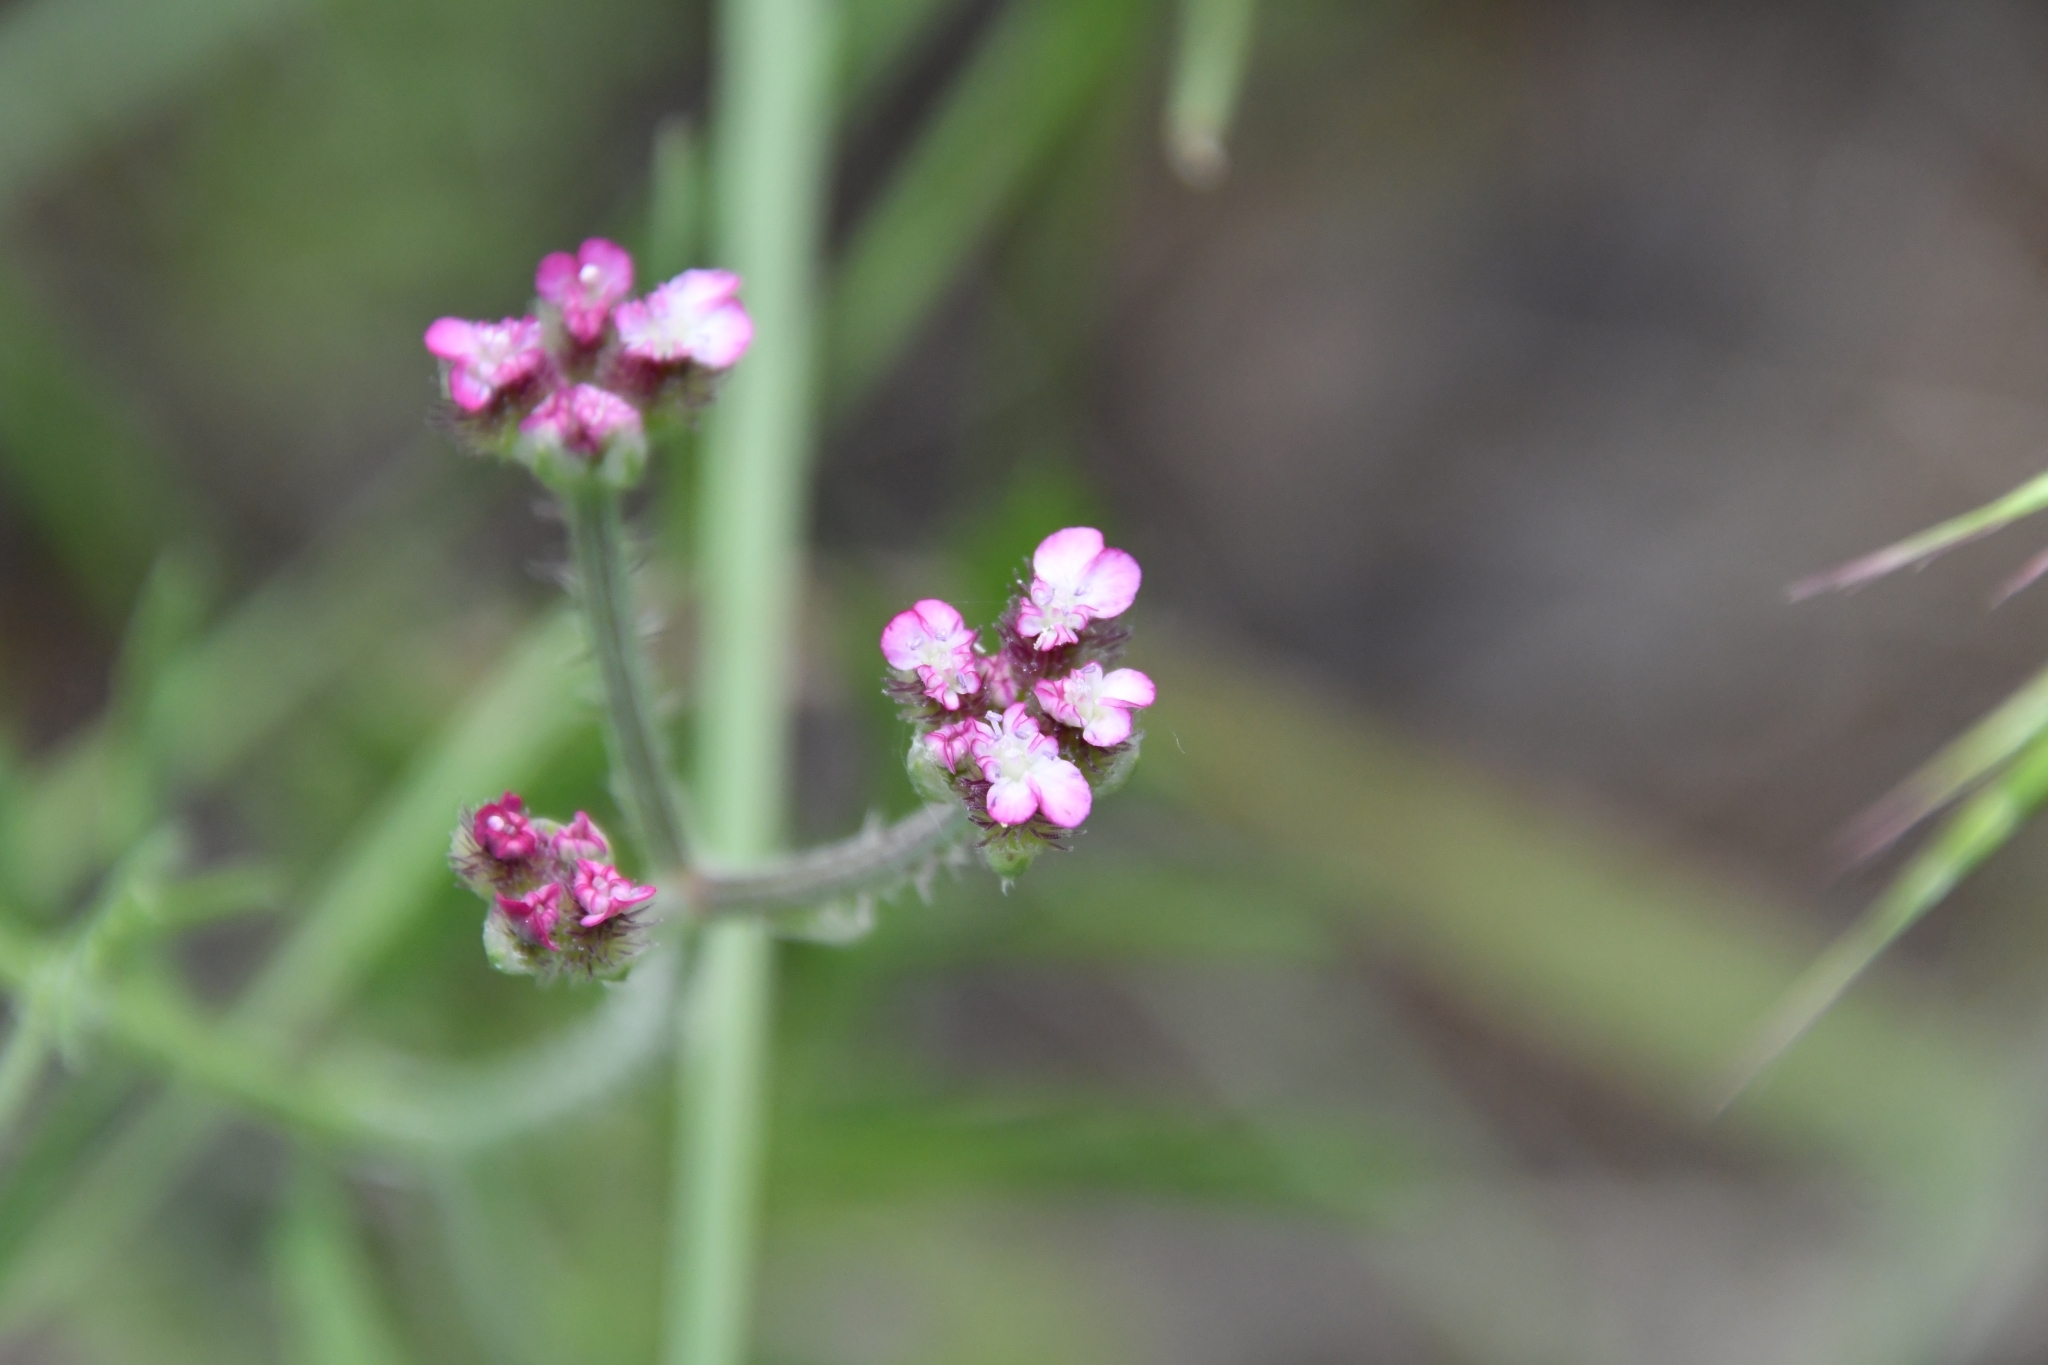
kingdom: Plantae
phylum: Tracheophyta
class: Magnoliopsida
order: Apiales
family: Apiaceae
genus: Turgenia
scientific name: Turgenia latifolia
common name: Greater bur-parsley
